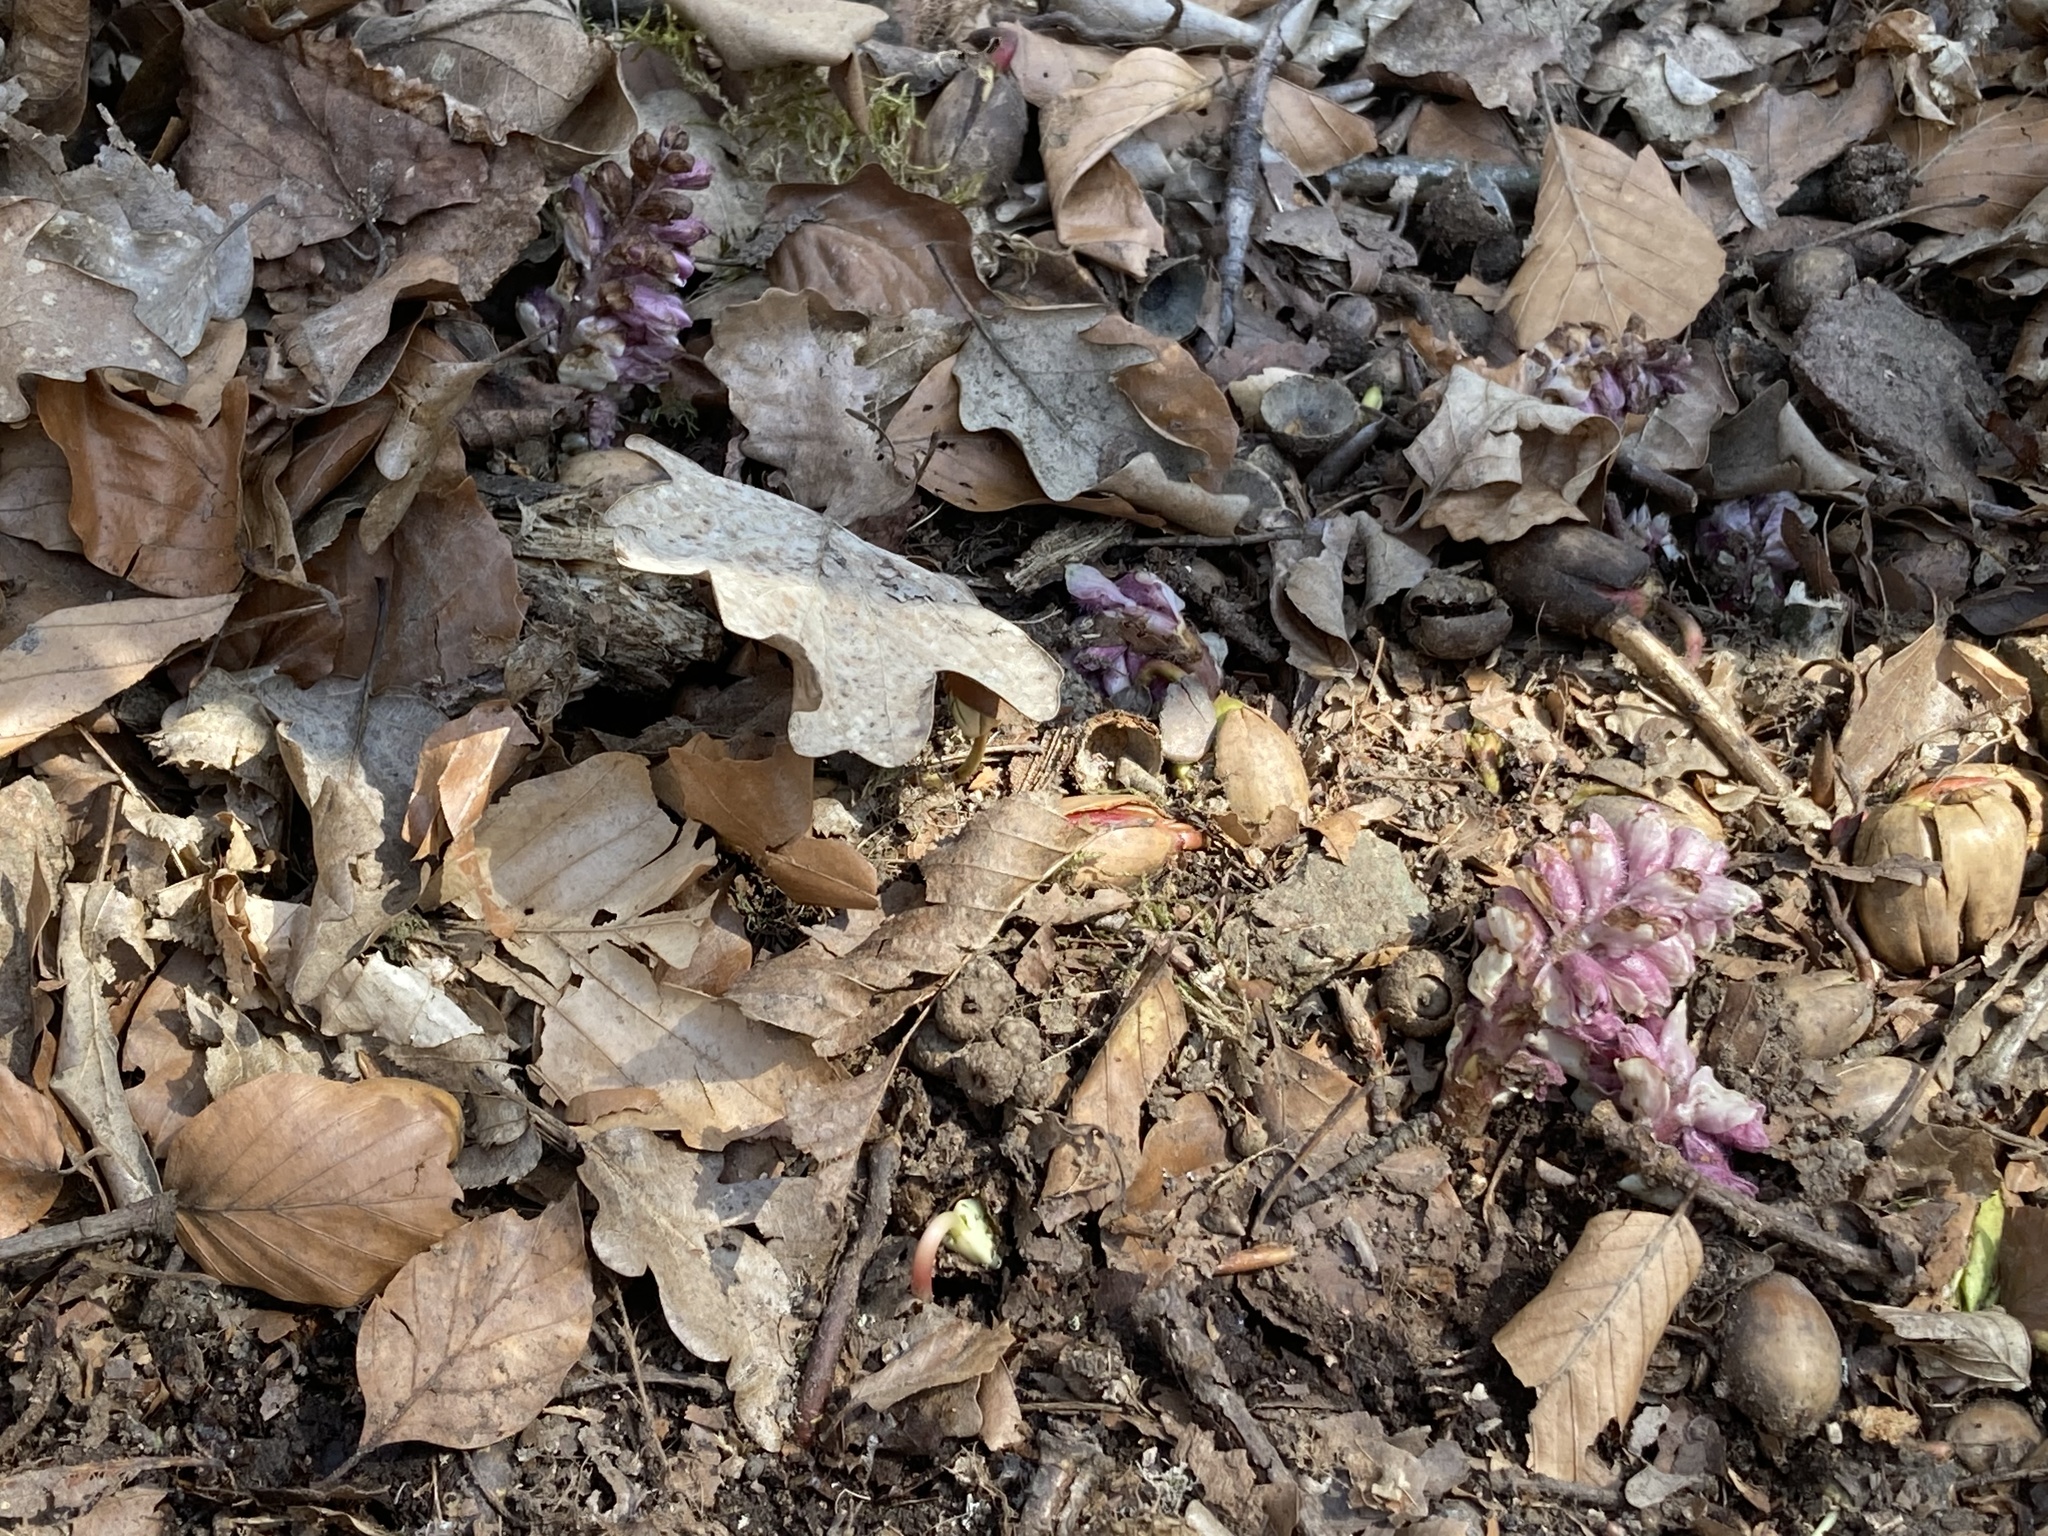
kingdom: Plantae
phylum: Tracheophyta
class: Magnoliopsida
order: Lamiales
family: Orobanchaceae
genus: Lathraea
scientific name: Lathraea squamaria
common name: Toothwort
